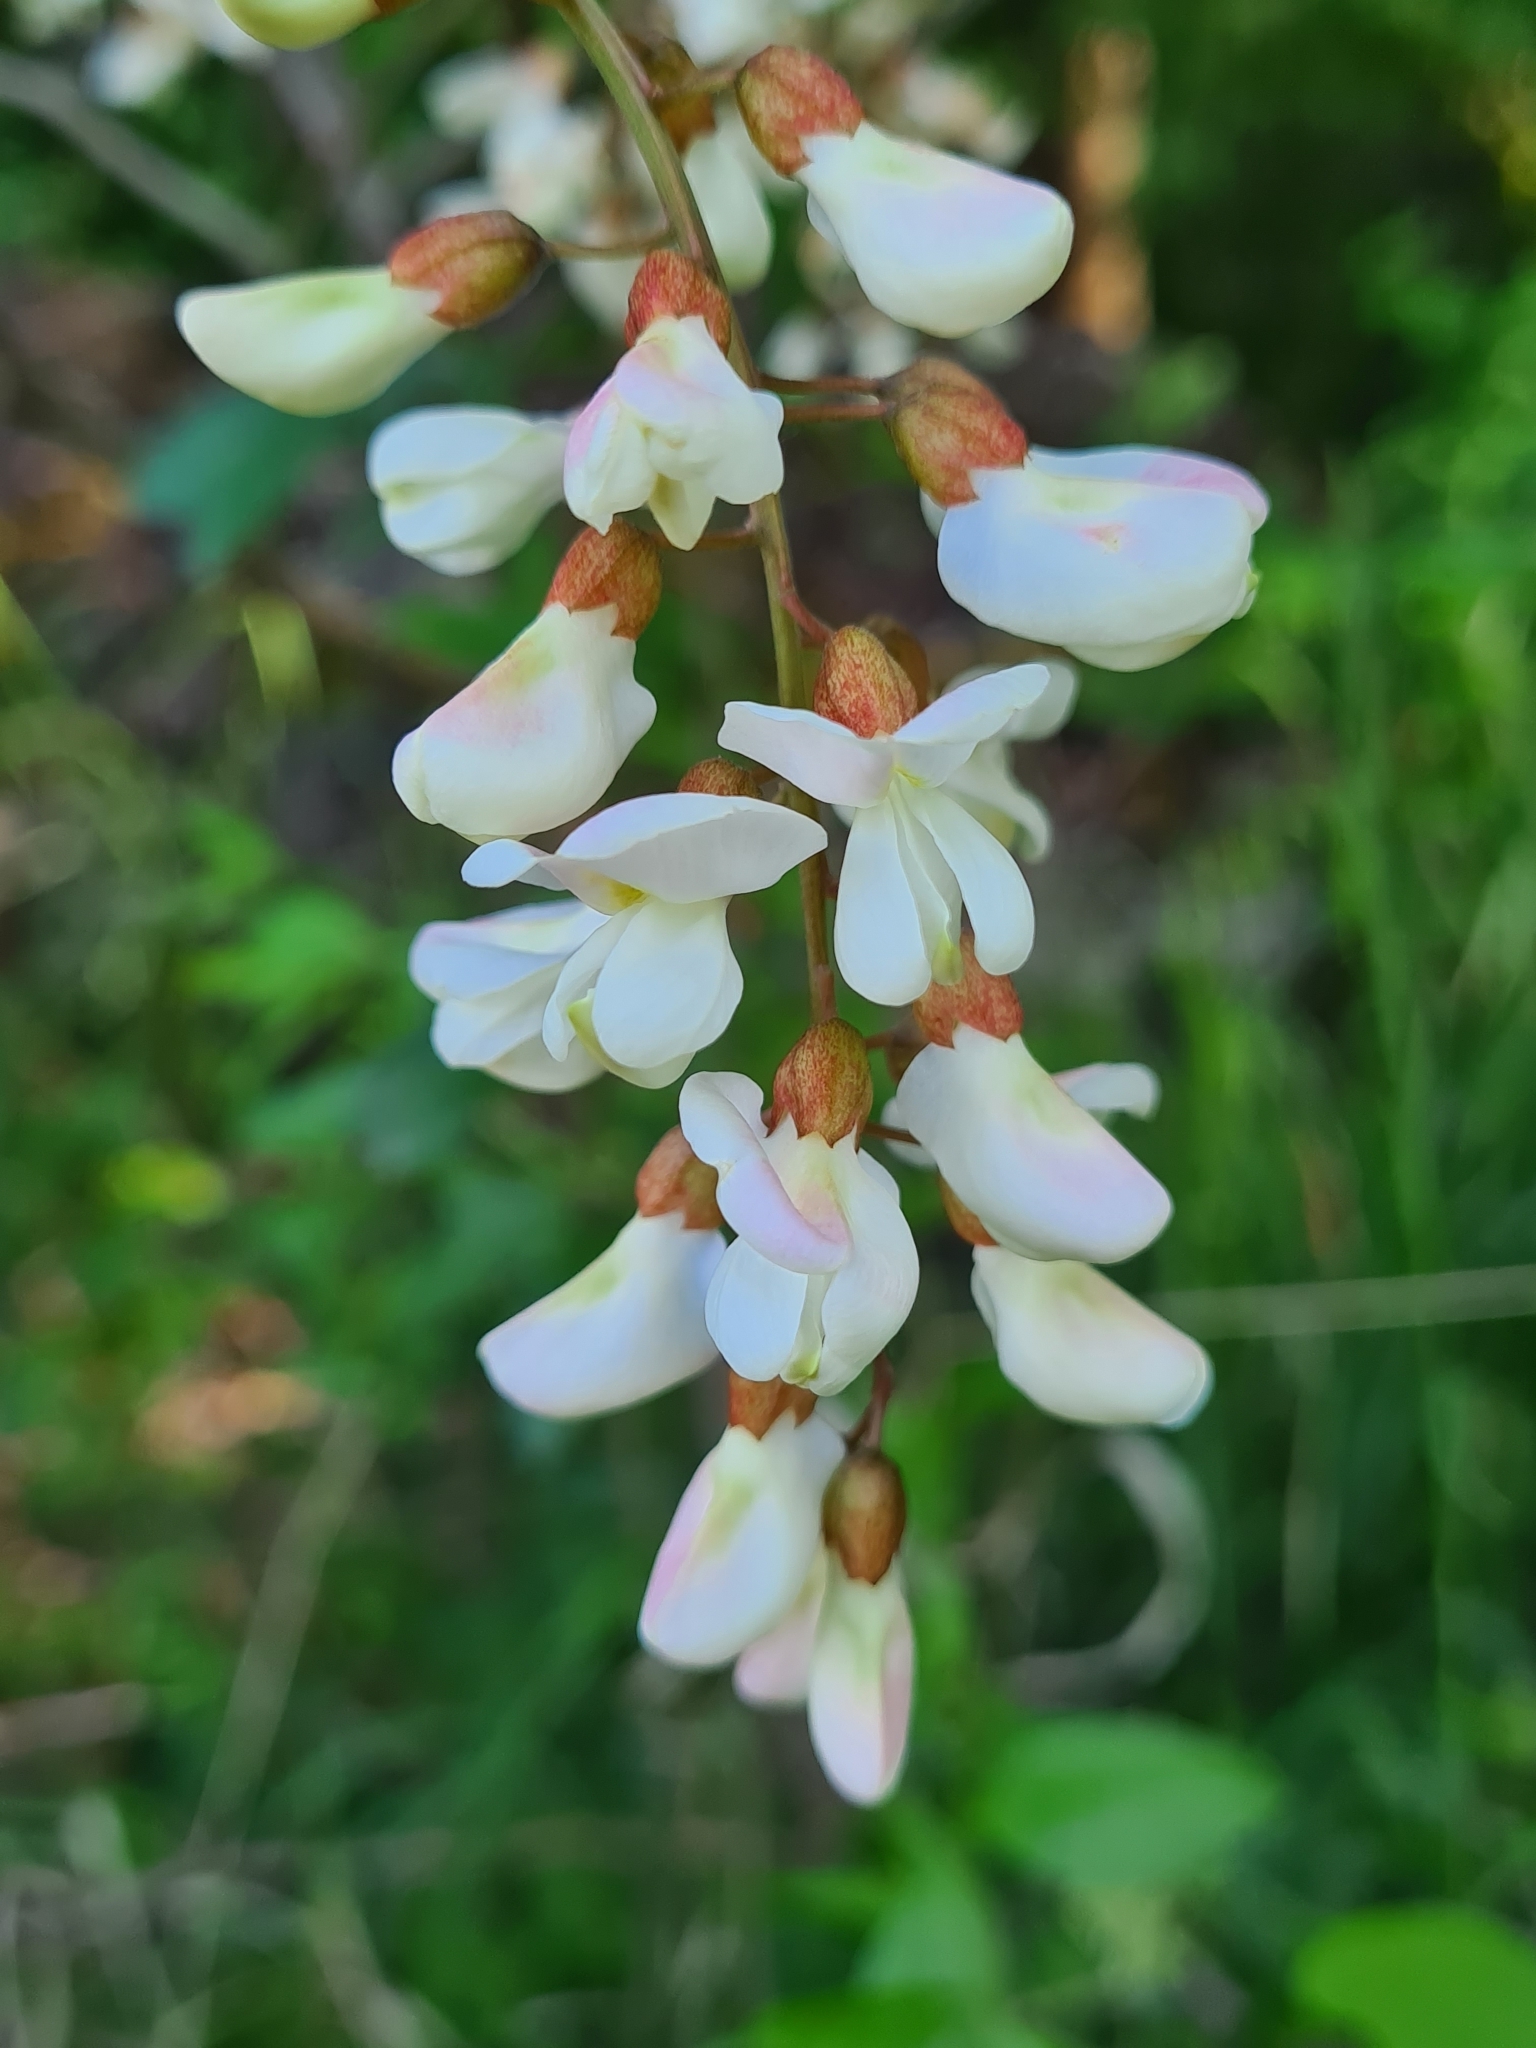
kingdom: Plantae
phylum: Tracheophyta
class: Magnoliopsida
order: Fabales
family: Fabaceae
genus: Robinia
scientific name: Robinia pseudoacacia
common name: Black locust
